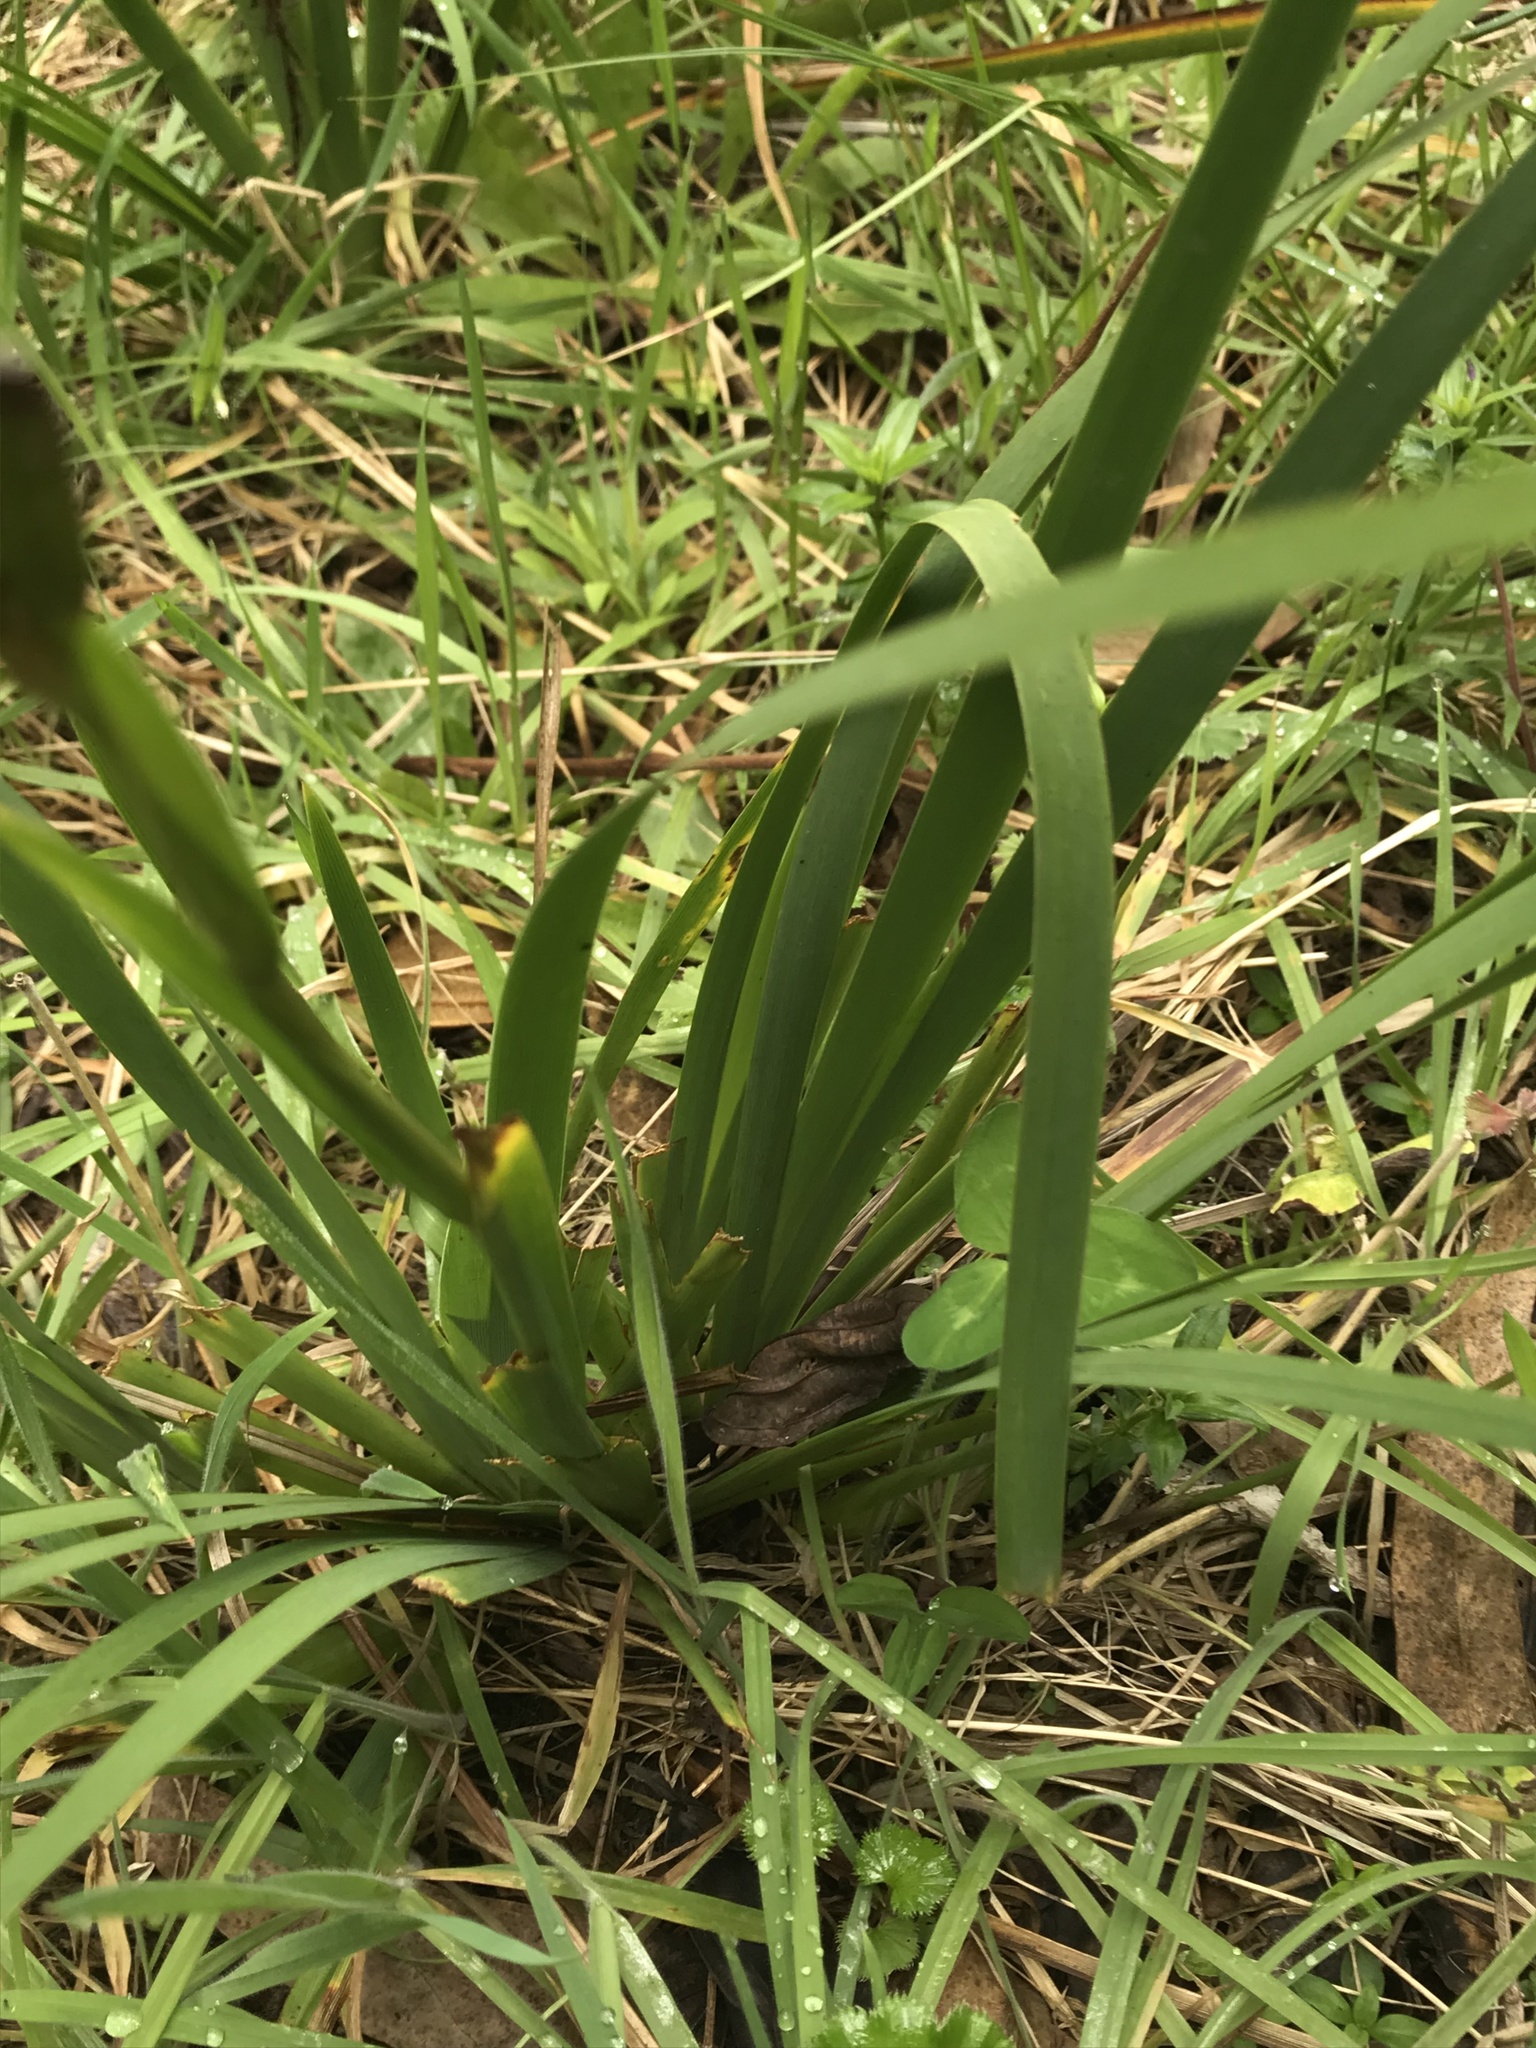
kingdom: Plantae
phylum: Tracheophyta
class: Liliopsida
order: Asparagales
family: Iridaceae
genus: Orthrosanthus
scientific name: Orthrosanthus chimboracensis
